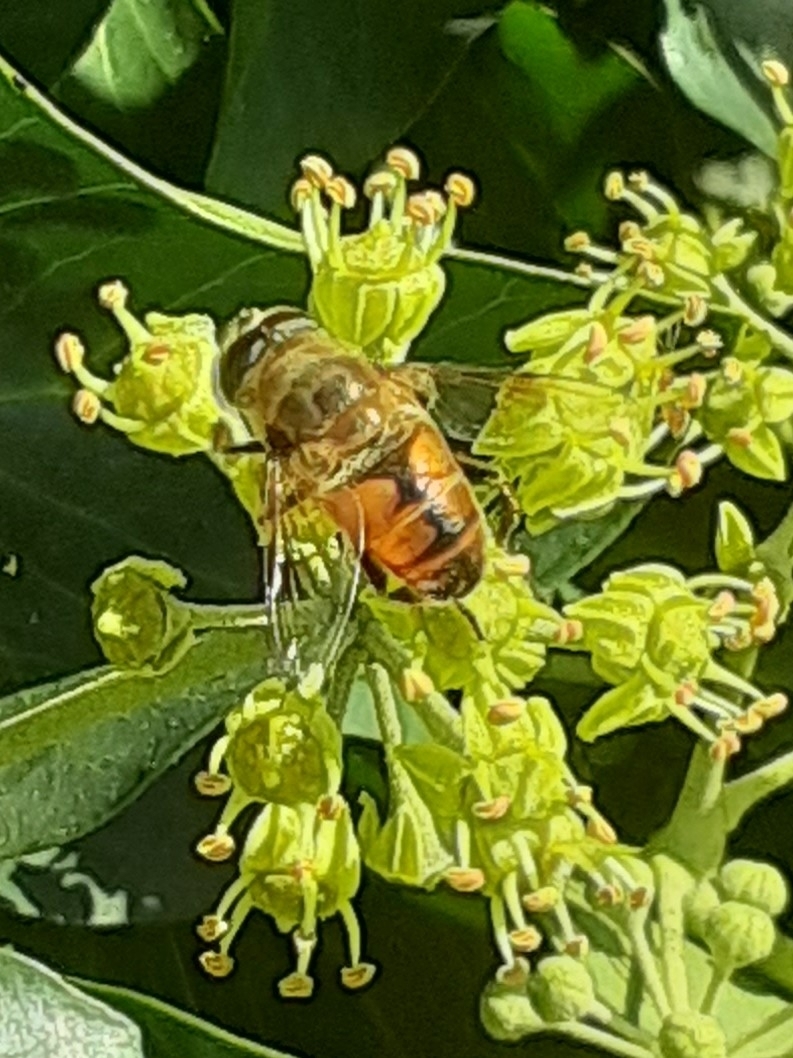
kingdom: Animalia
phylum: Arthropoda
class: Insecta
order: Diptera
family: Syrphidae
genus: Eristalis
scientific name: Eristalis tenax
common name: Drone fly
